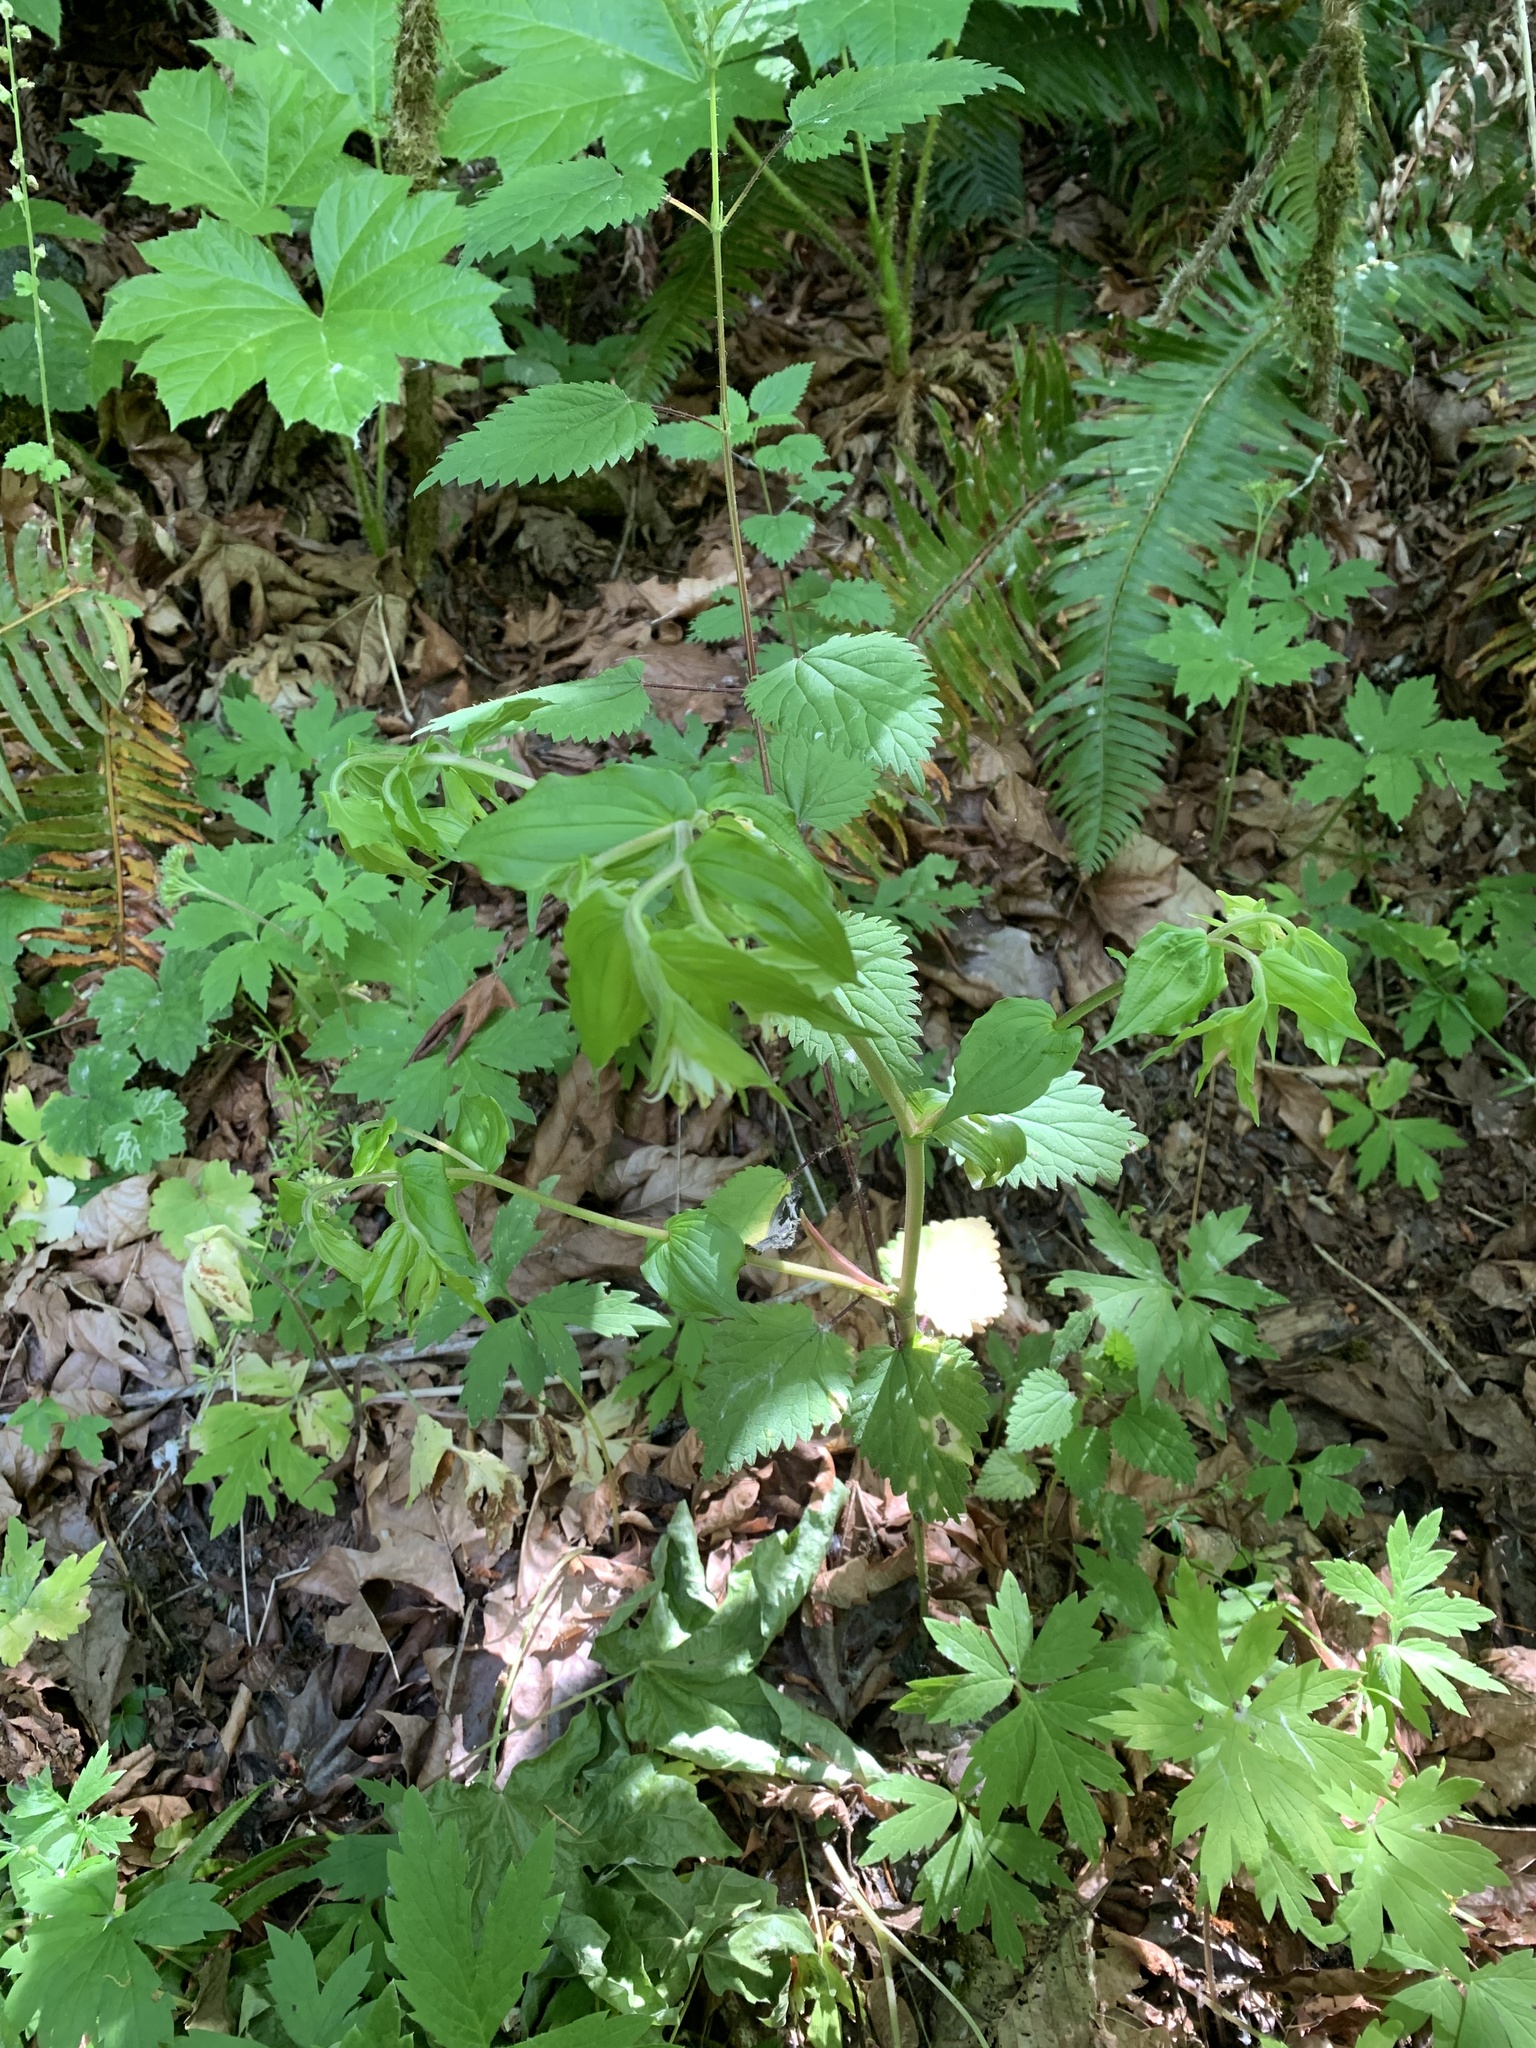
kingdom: Plantae
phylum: Tracheophyta
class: Liliopsida
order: Liliales
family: Liliaceae
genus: Prosartes
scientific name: Prosartes hookeri
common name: Fairy-bells
